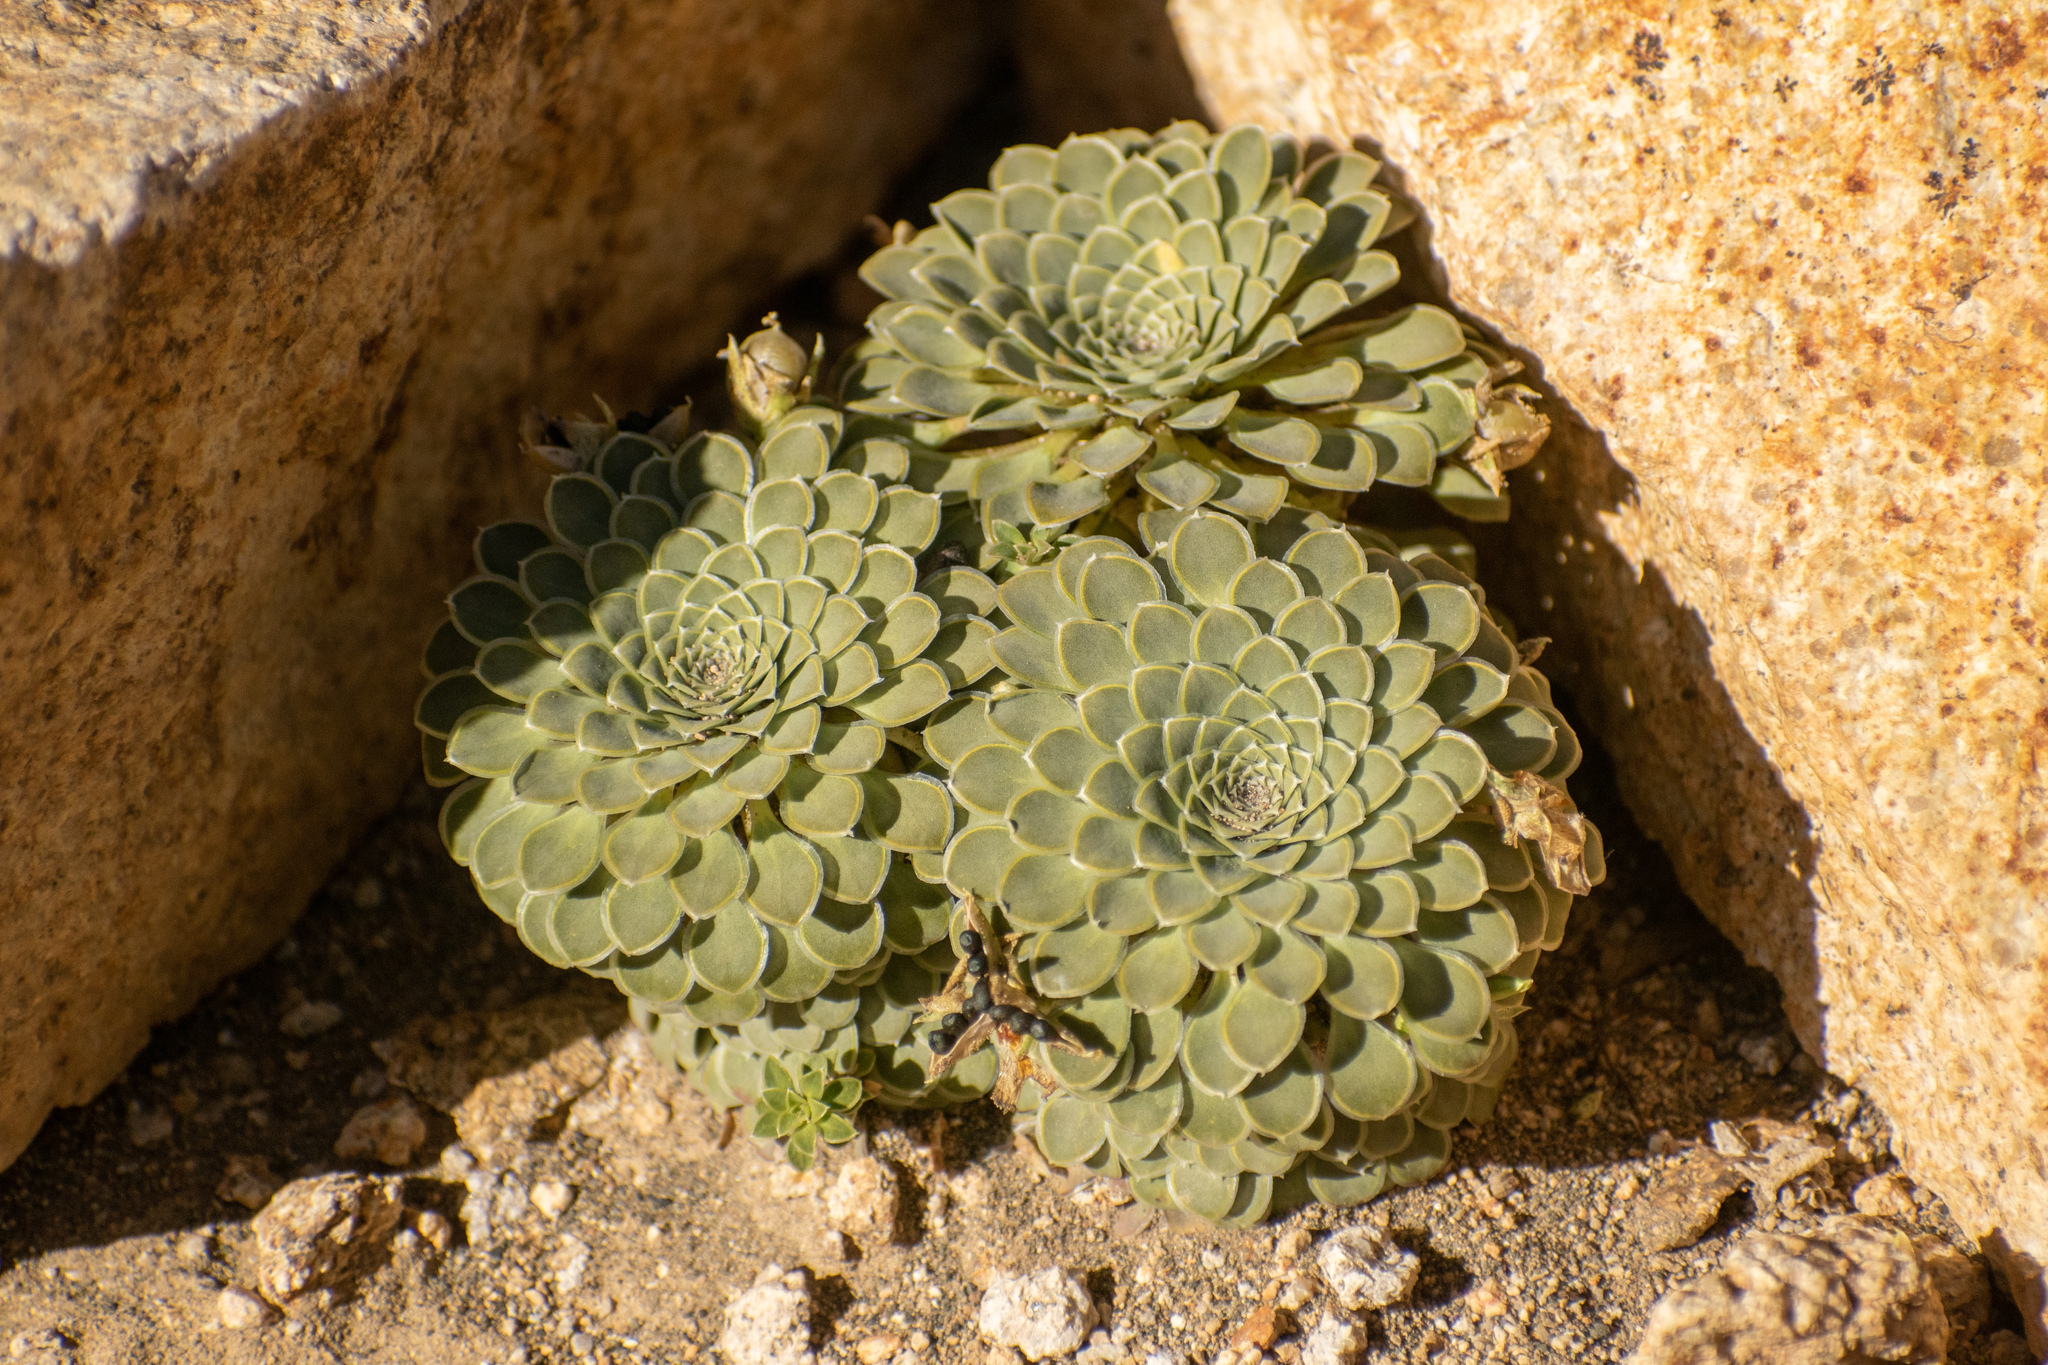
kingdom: Plantae
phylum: Tracheophyta
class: Magnoliopsida
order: Malpighiales
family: Violaceae
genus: Viola
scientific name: Viola petraea
